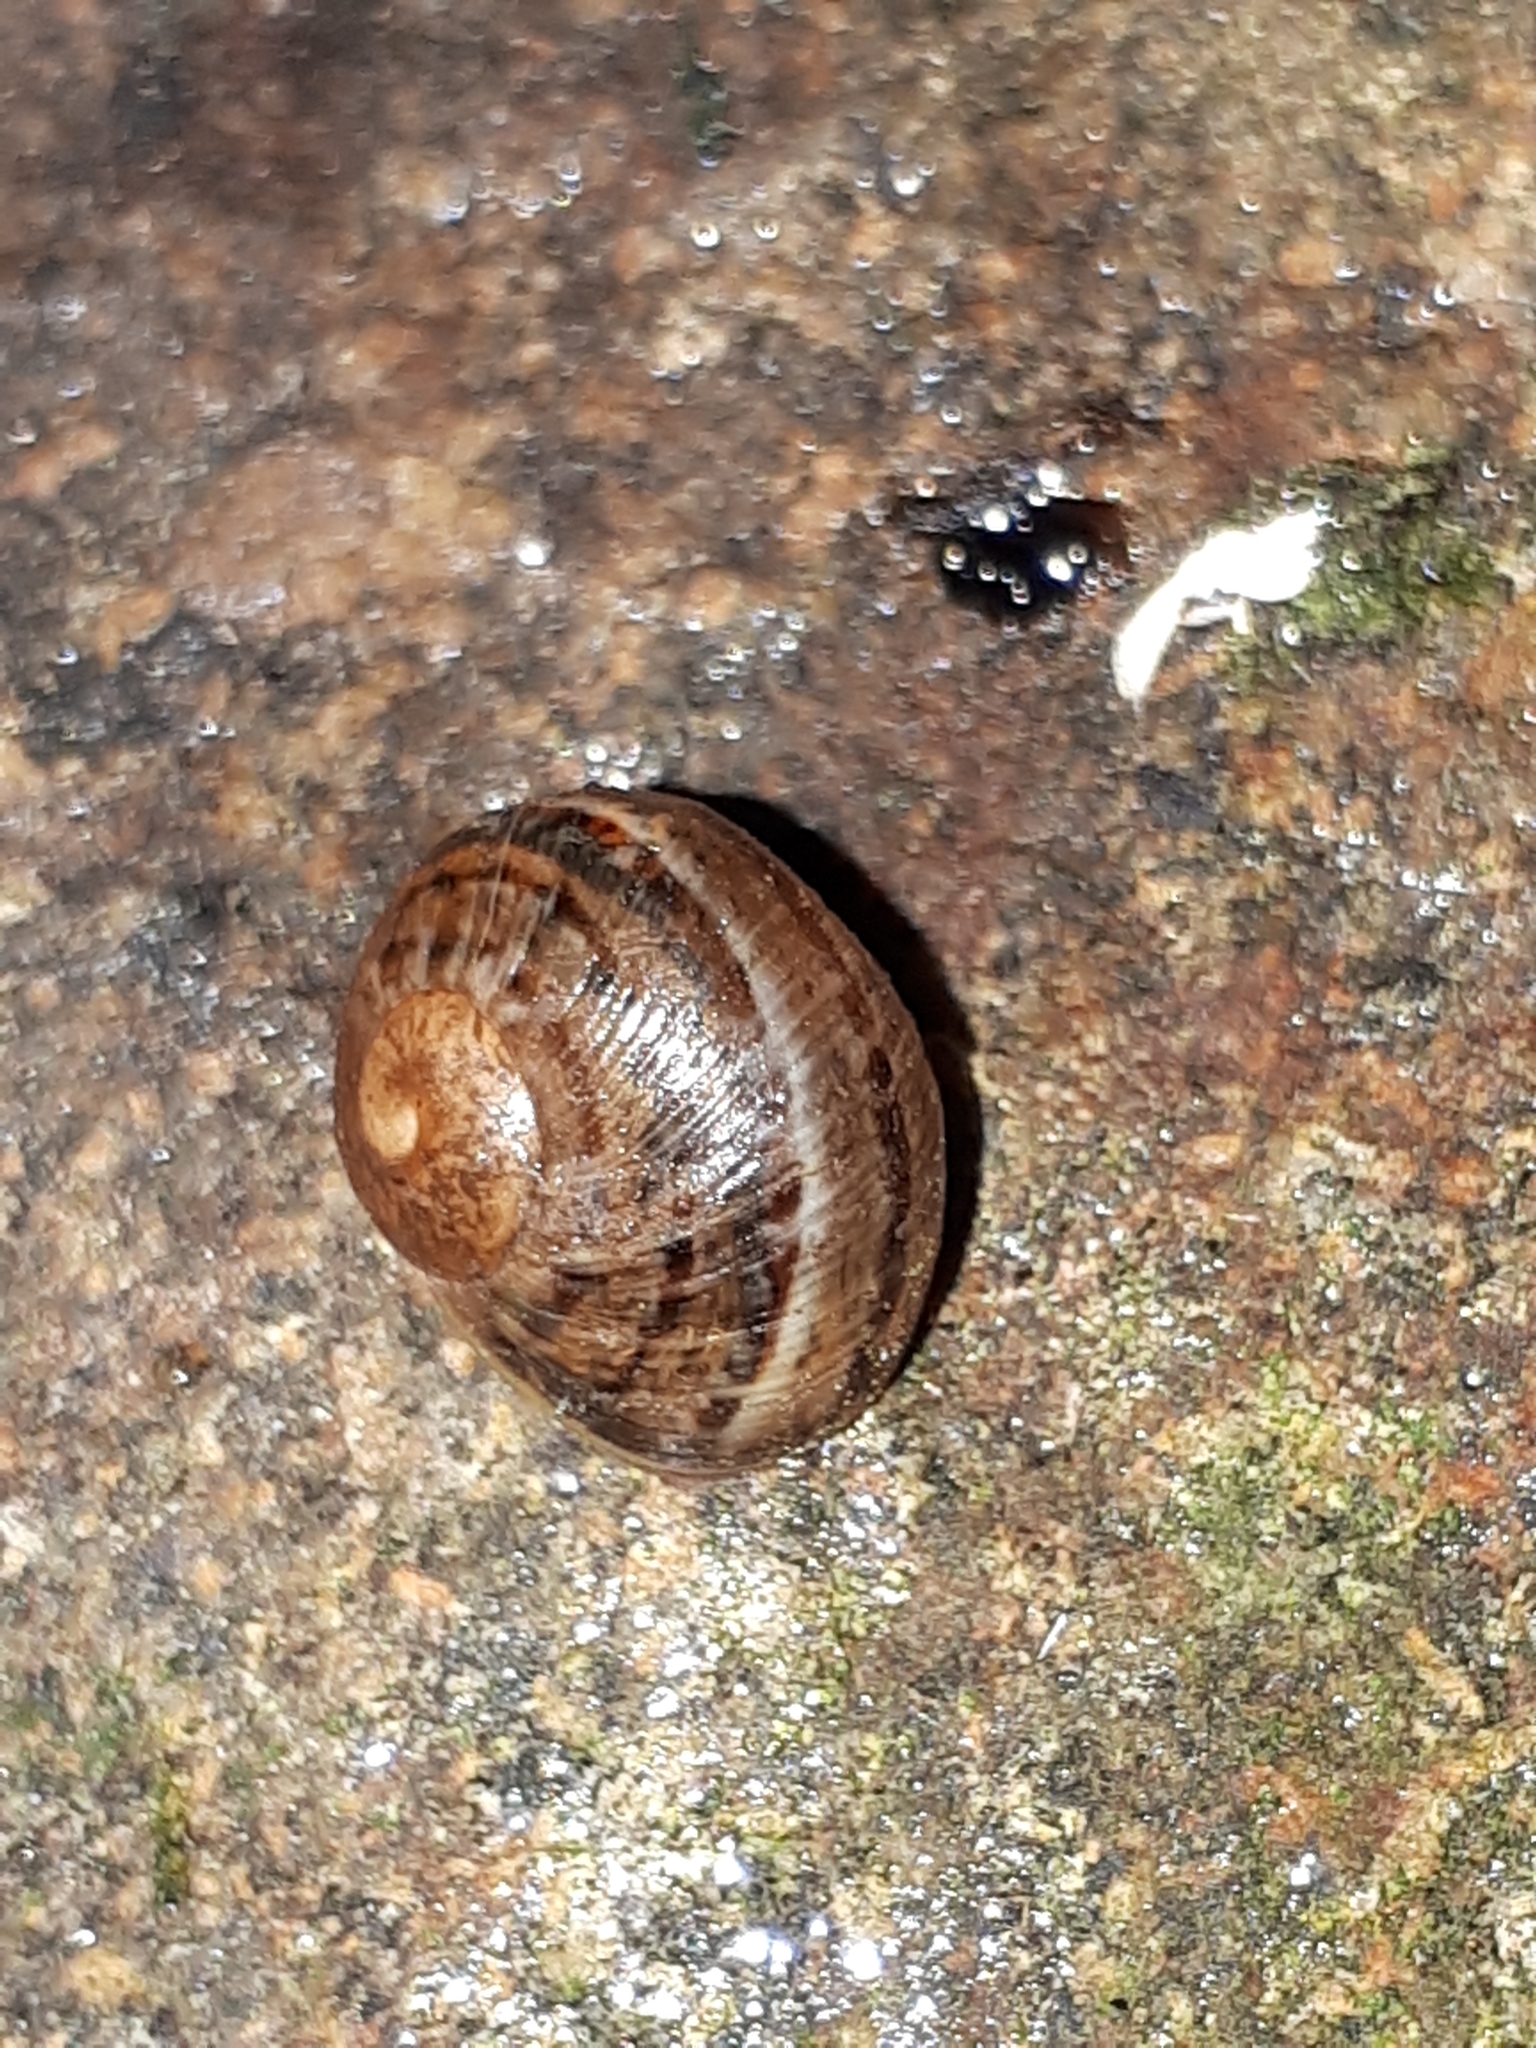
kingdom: Animalia
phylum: Mollusca
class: Gastropoda
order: Stylommatophora
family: Helicidae
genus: Cornu
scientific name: Cornu aspersum
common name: Brown garden snail
